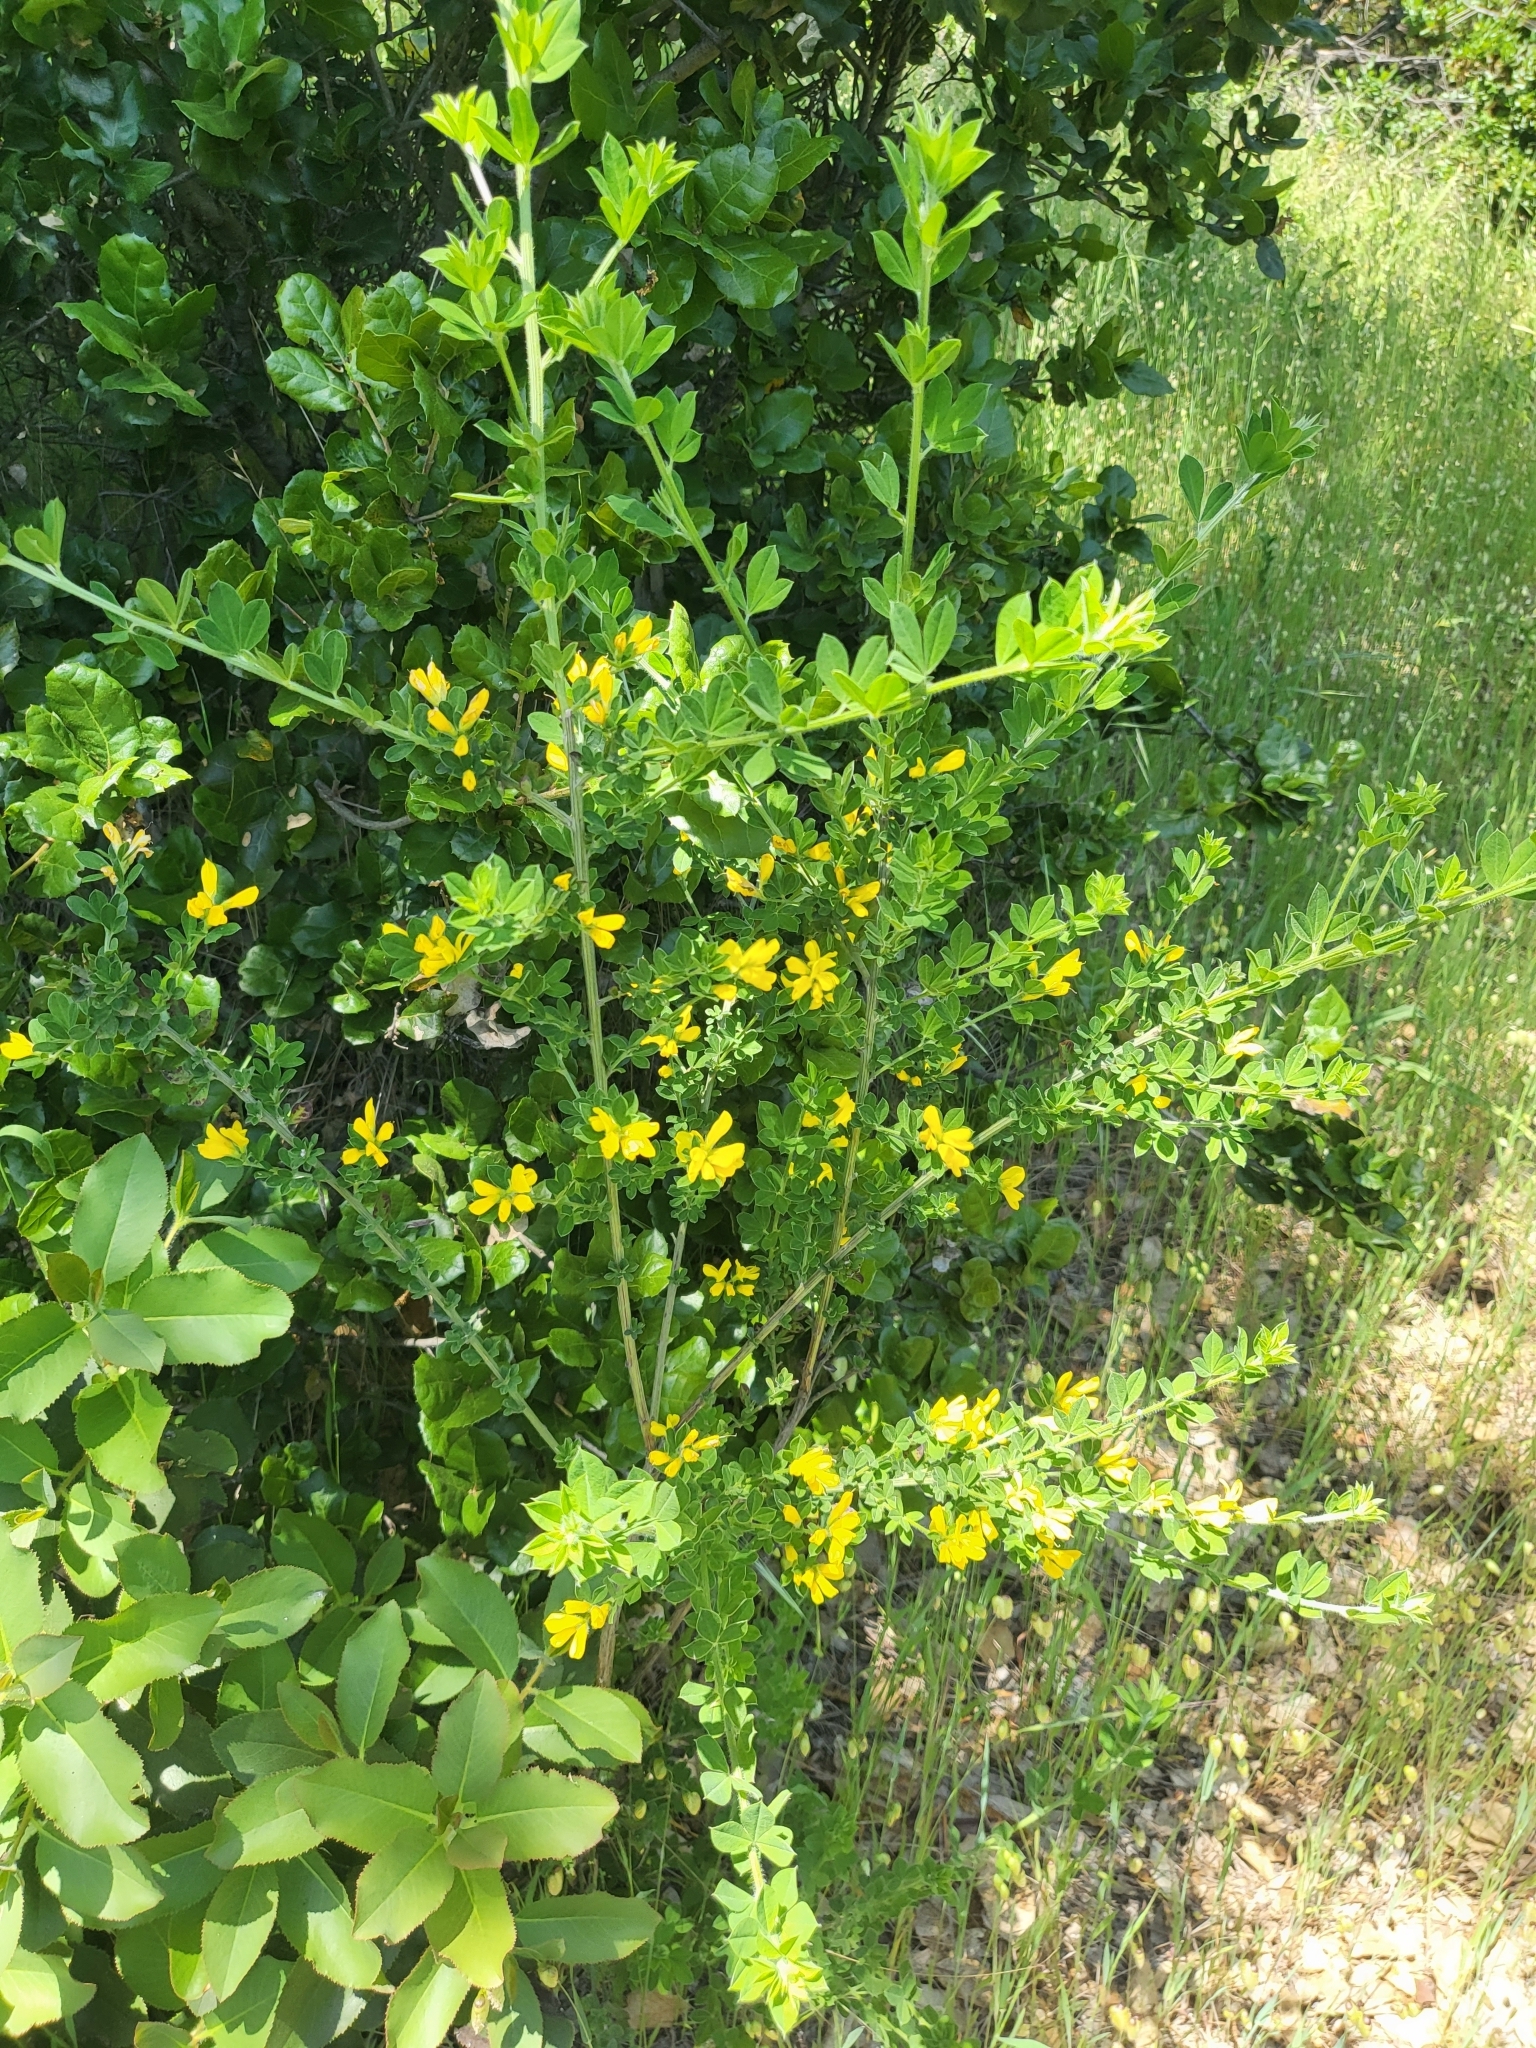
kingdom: Plantae
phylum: Tracheophyta
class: Magnoliopsida
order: Fabales
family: Fabaceae
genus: Genista
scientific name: Genista monspessulana
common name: Montpellier broom
